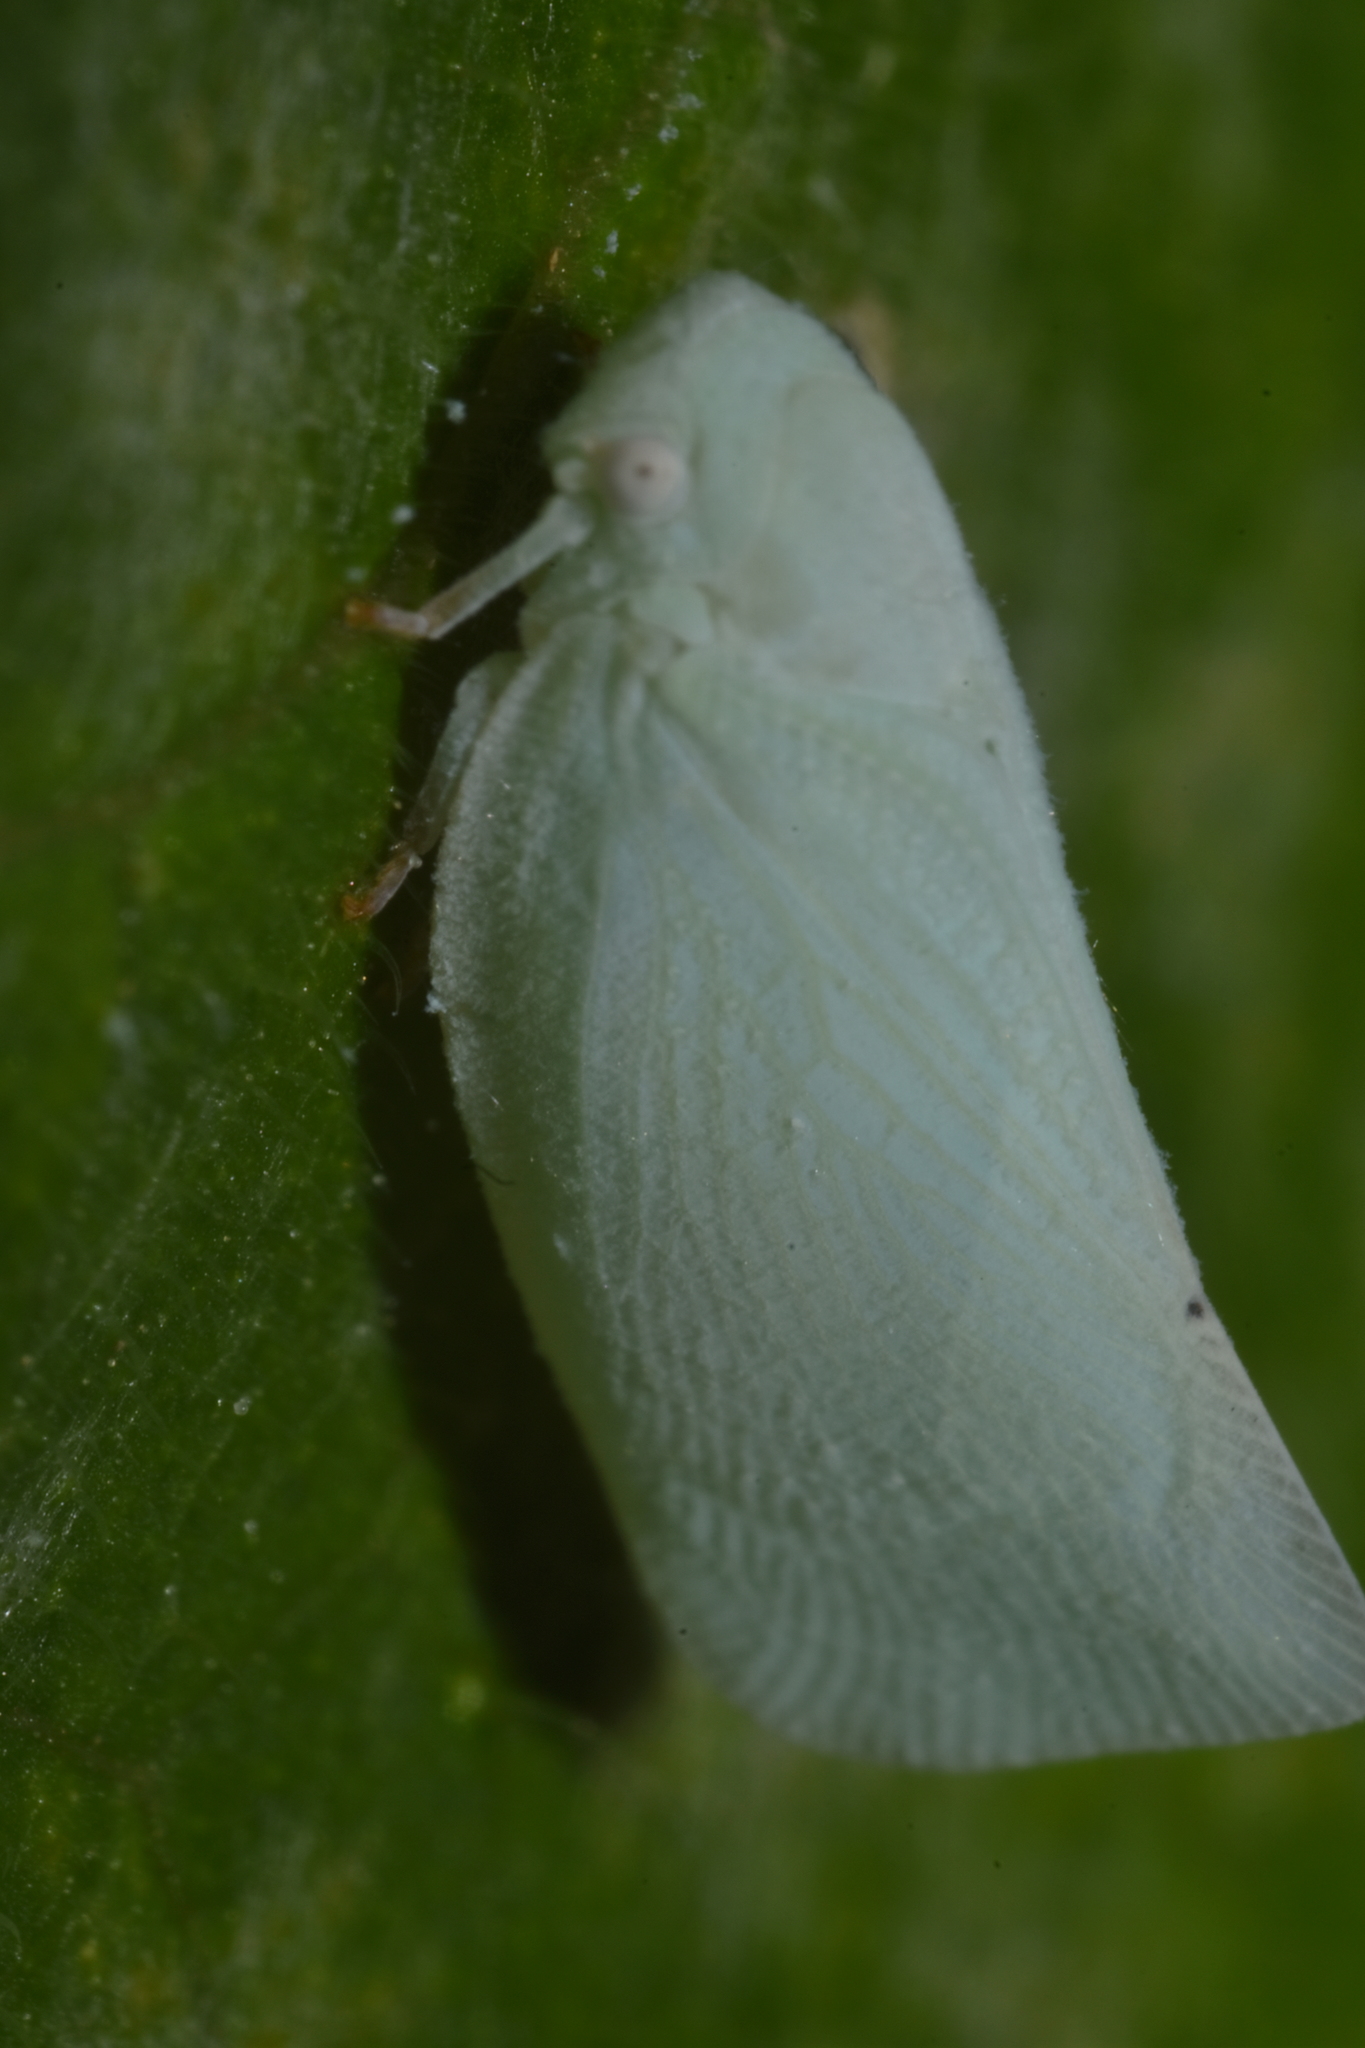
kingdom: Animalia
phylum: Arthropoda
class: Insecta
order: Hemiptera
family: Flatidae
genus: Flatormenis
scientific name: Flatormenis proxima
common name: Northern flatid planthopper
